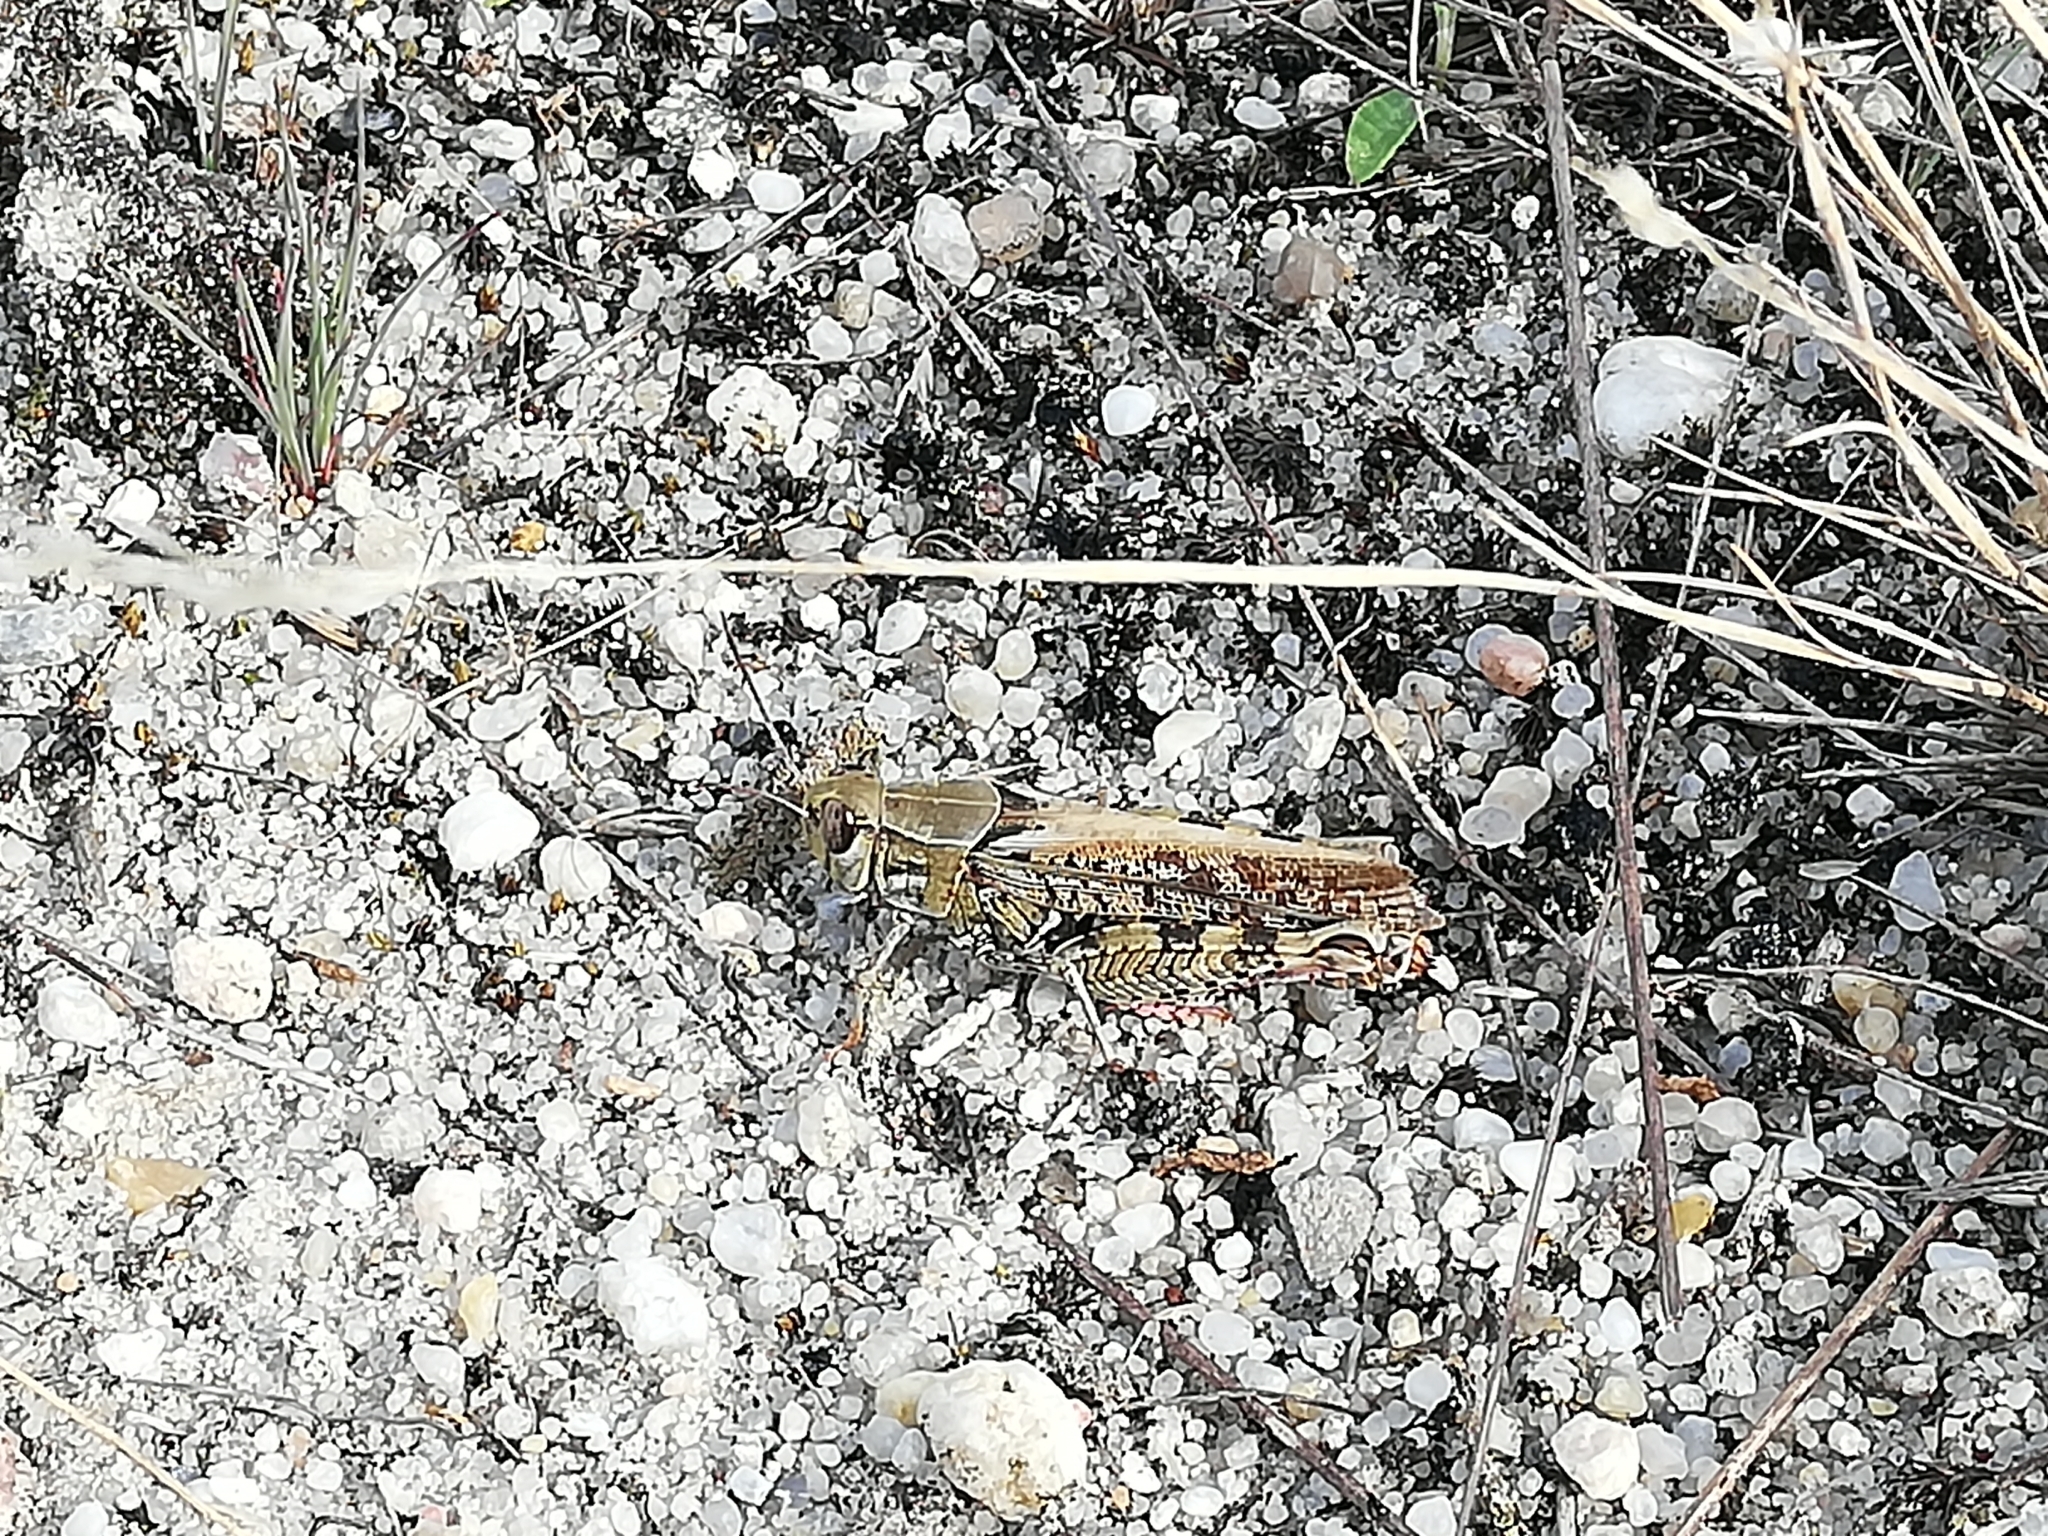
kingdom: Animalia
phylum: Arthropoda
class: Insecta
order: Orthoptera
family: Acrididae
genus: Calliptamus
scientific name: Calliptamus italicus
